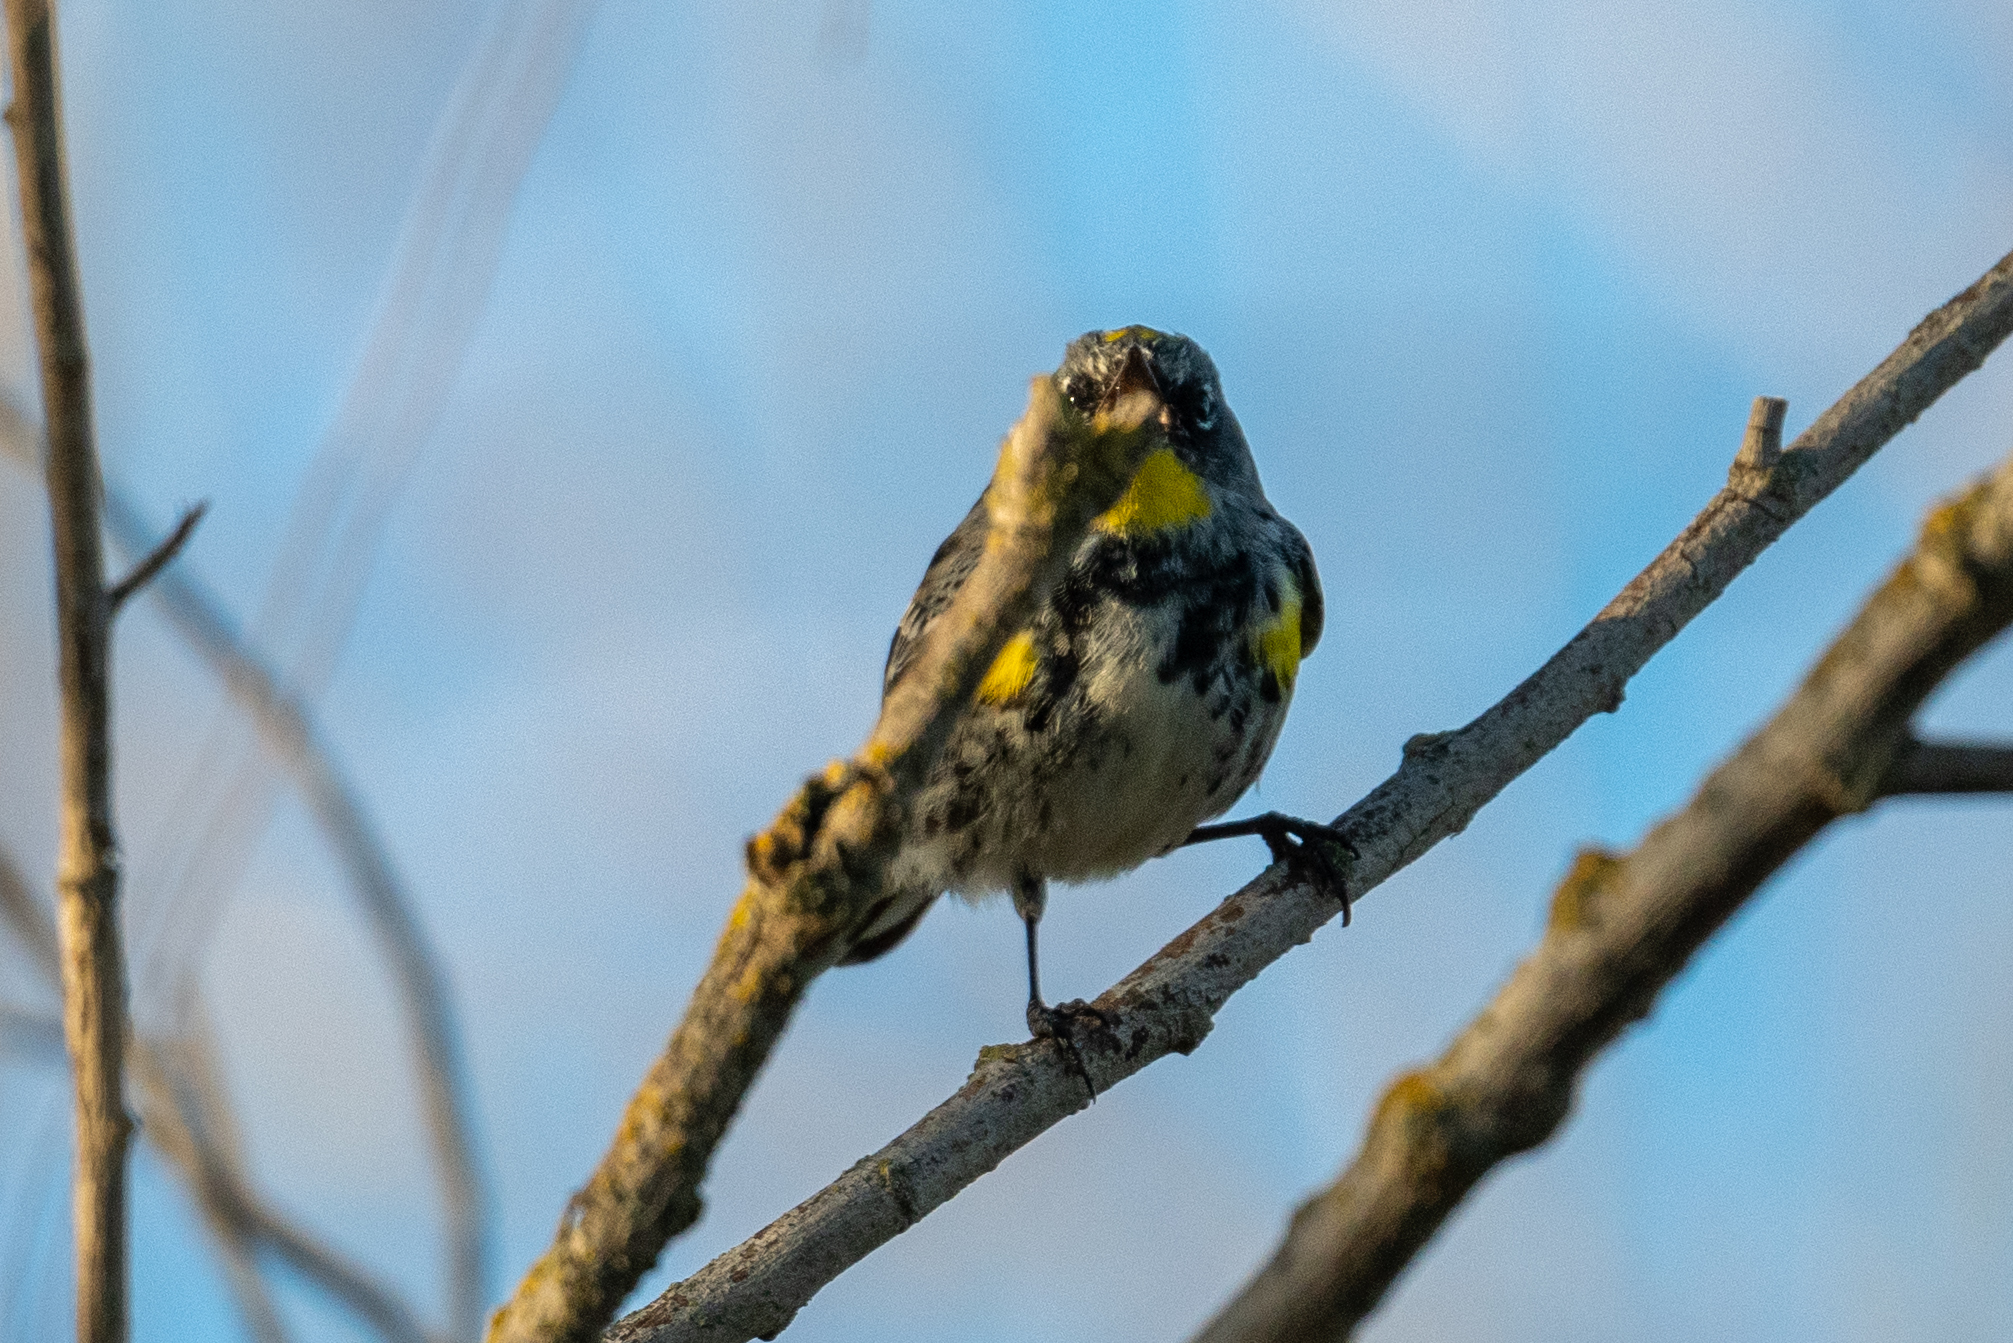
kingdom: Animalia
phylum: Chordata
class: Aves
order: Passeriformes
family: Parulidae
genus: Setophaga
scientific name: Setophaga auduboni
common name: Audubon's warbler
